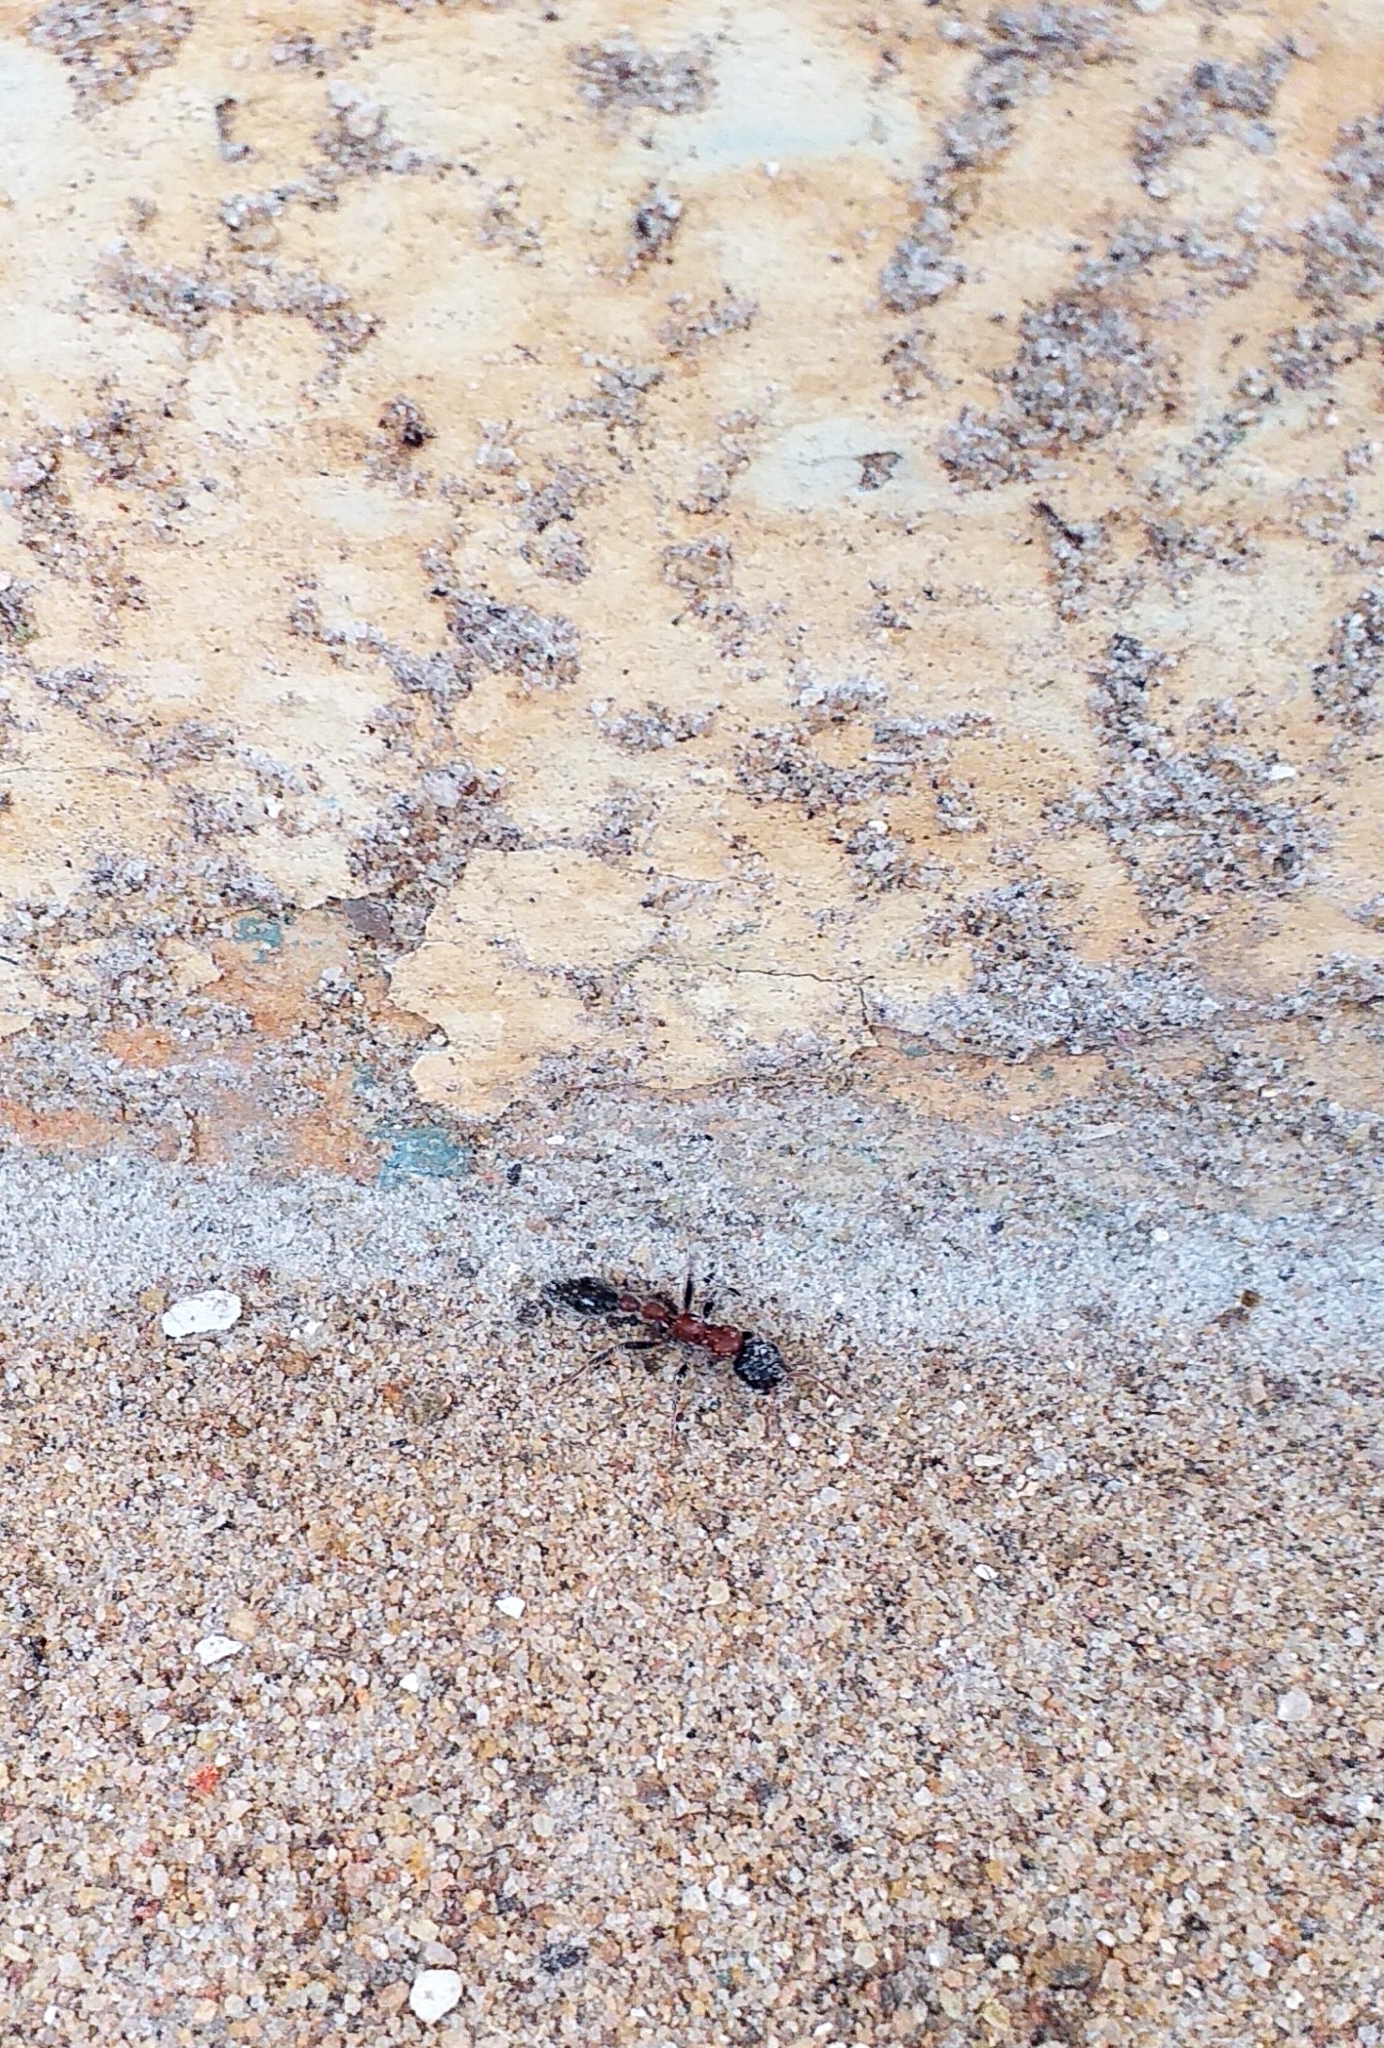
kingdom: Animalia
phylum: Arthropoda
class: Insecta
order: Hymenoptera
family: Formicidae
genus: Tetraponera
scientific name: Tetraponera rufonigra
